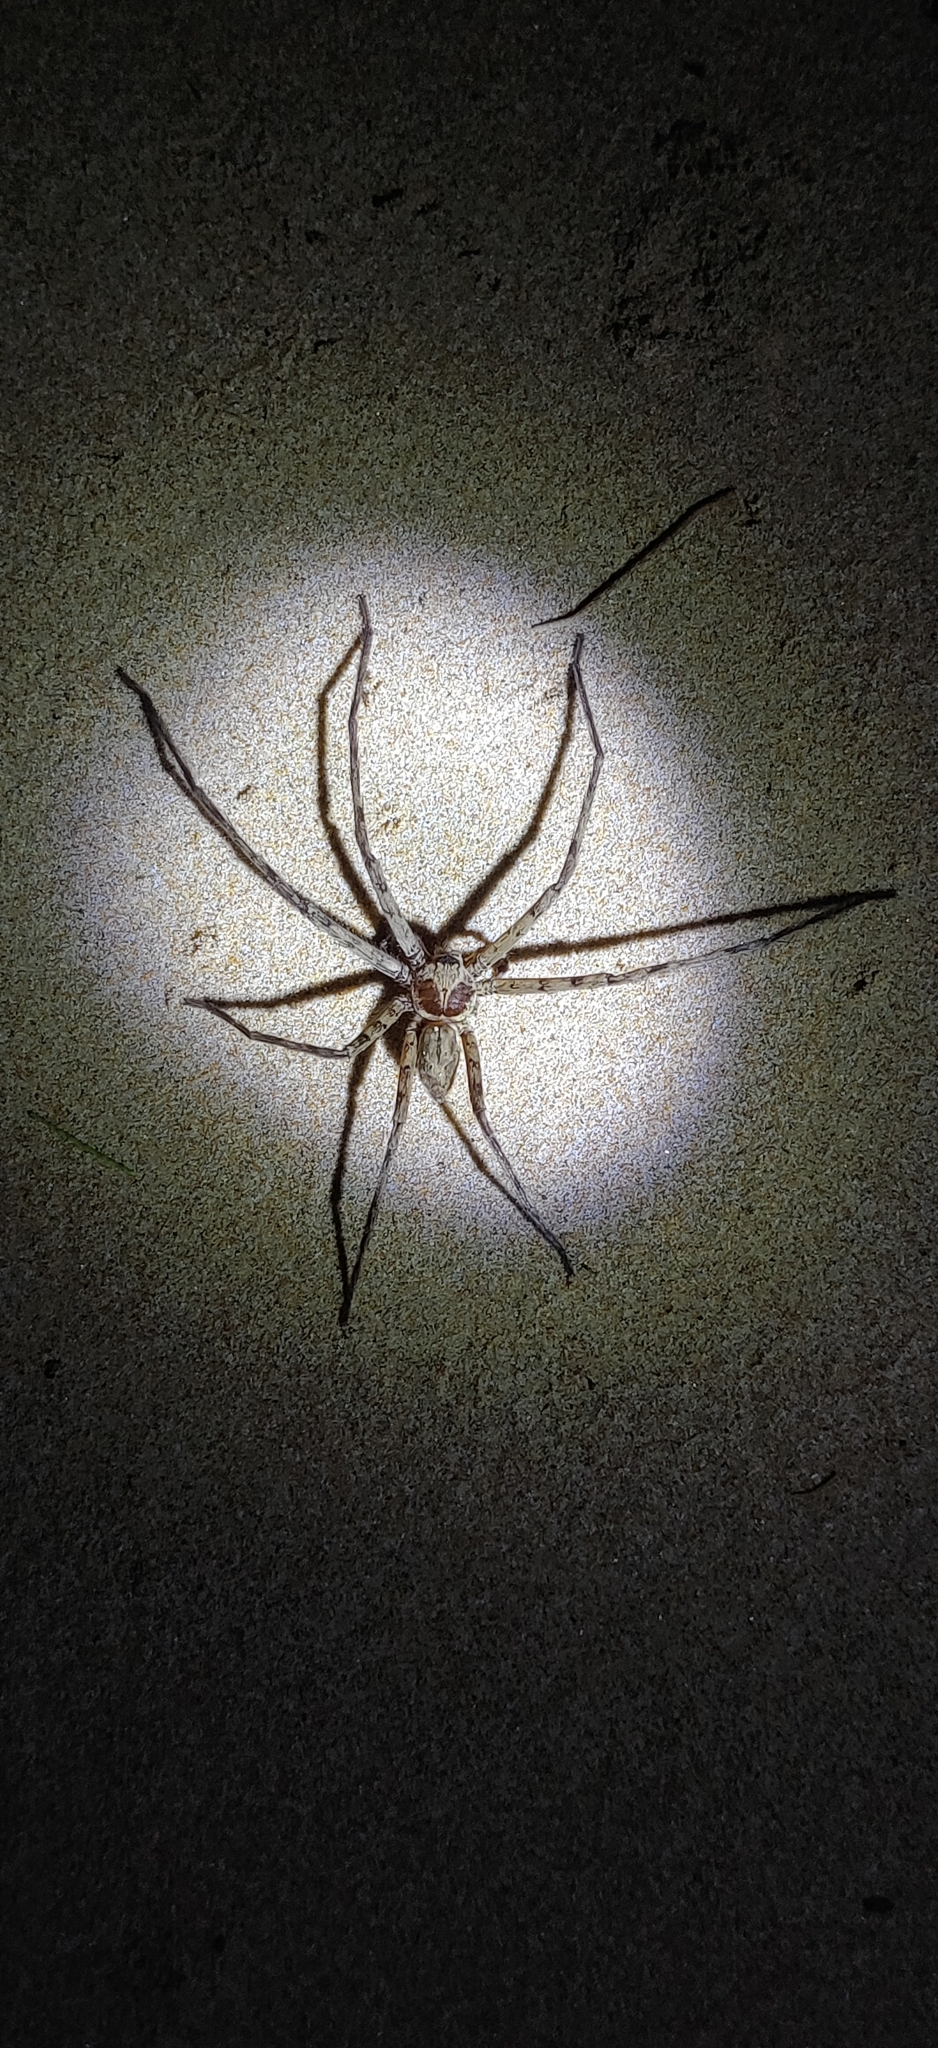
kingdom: Animalia
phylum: Arthropoda
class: Arachnida
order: Araneae
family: Sparassidae
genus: Heteropoda
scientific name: Heteropoda venatoria
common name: Huntsman spider
